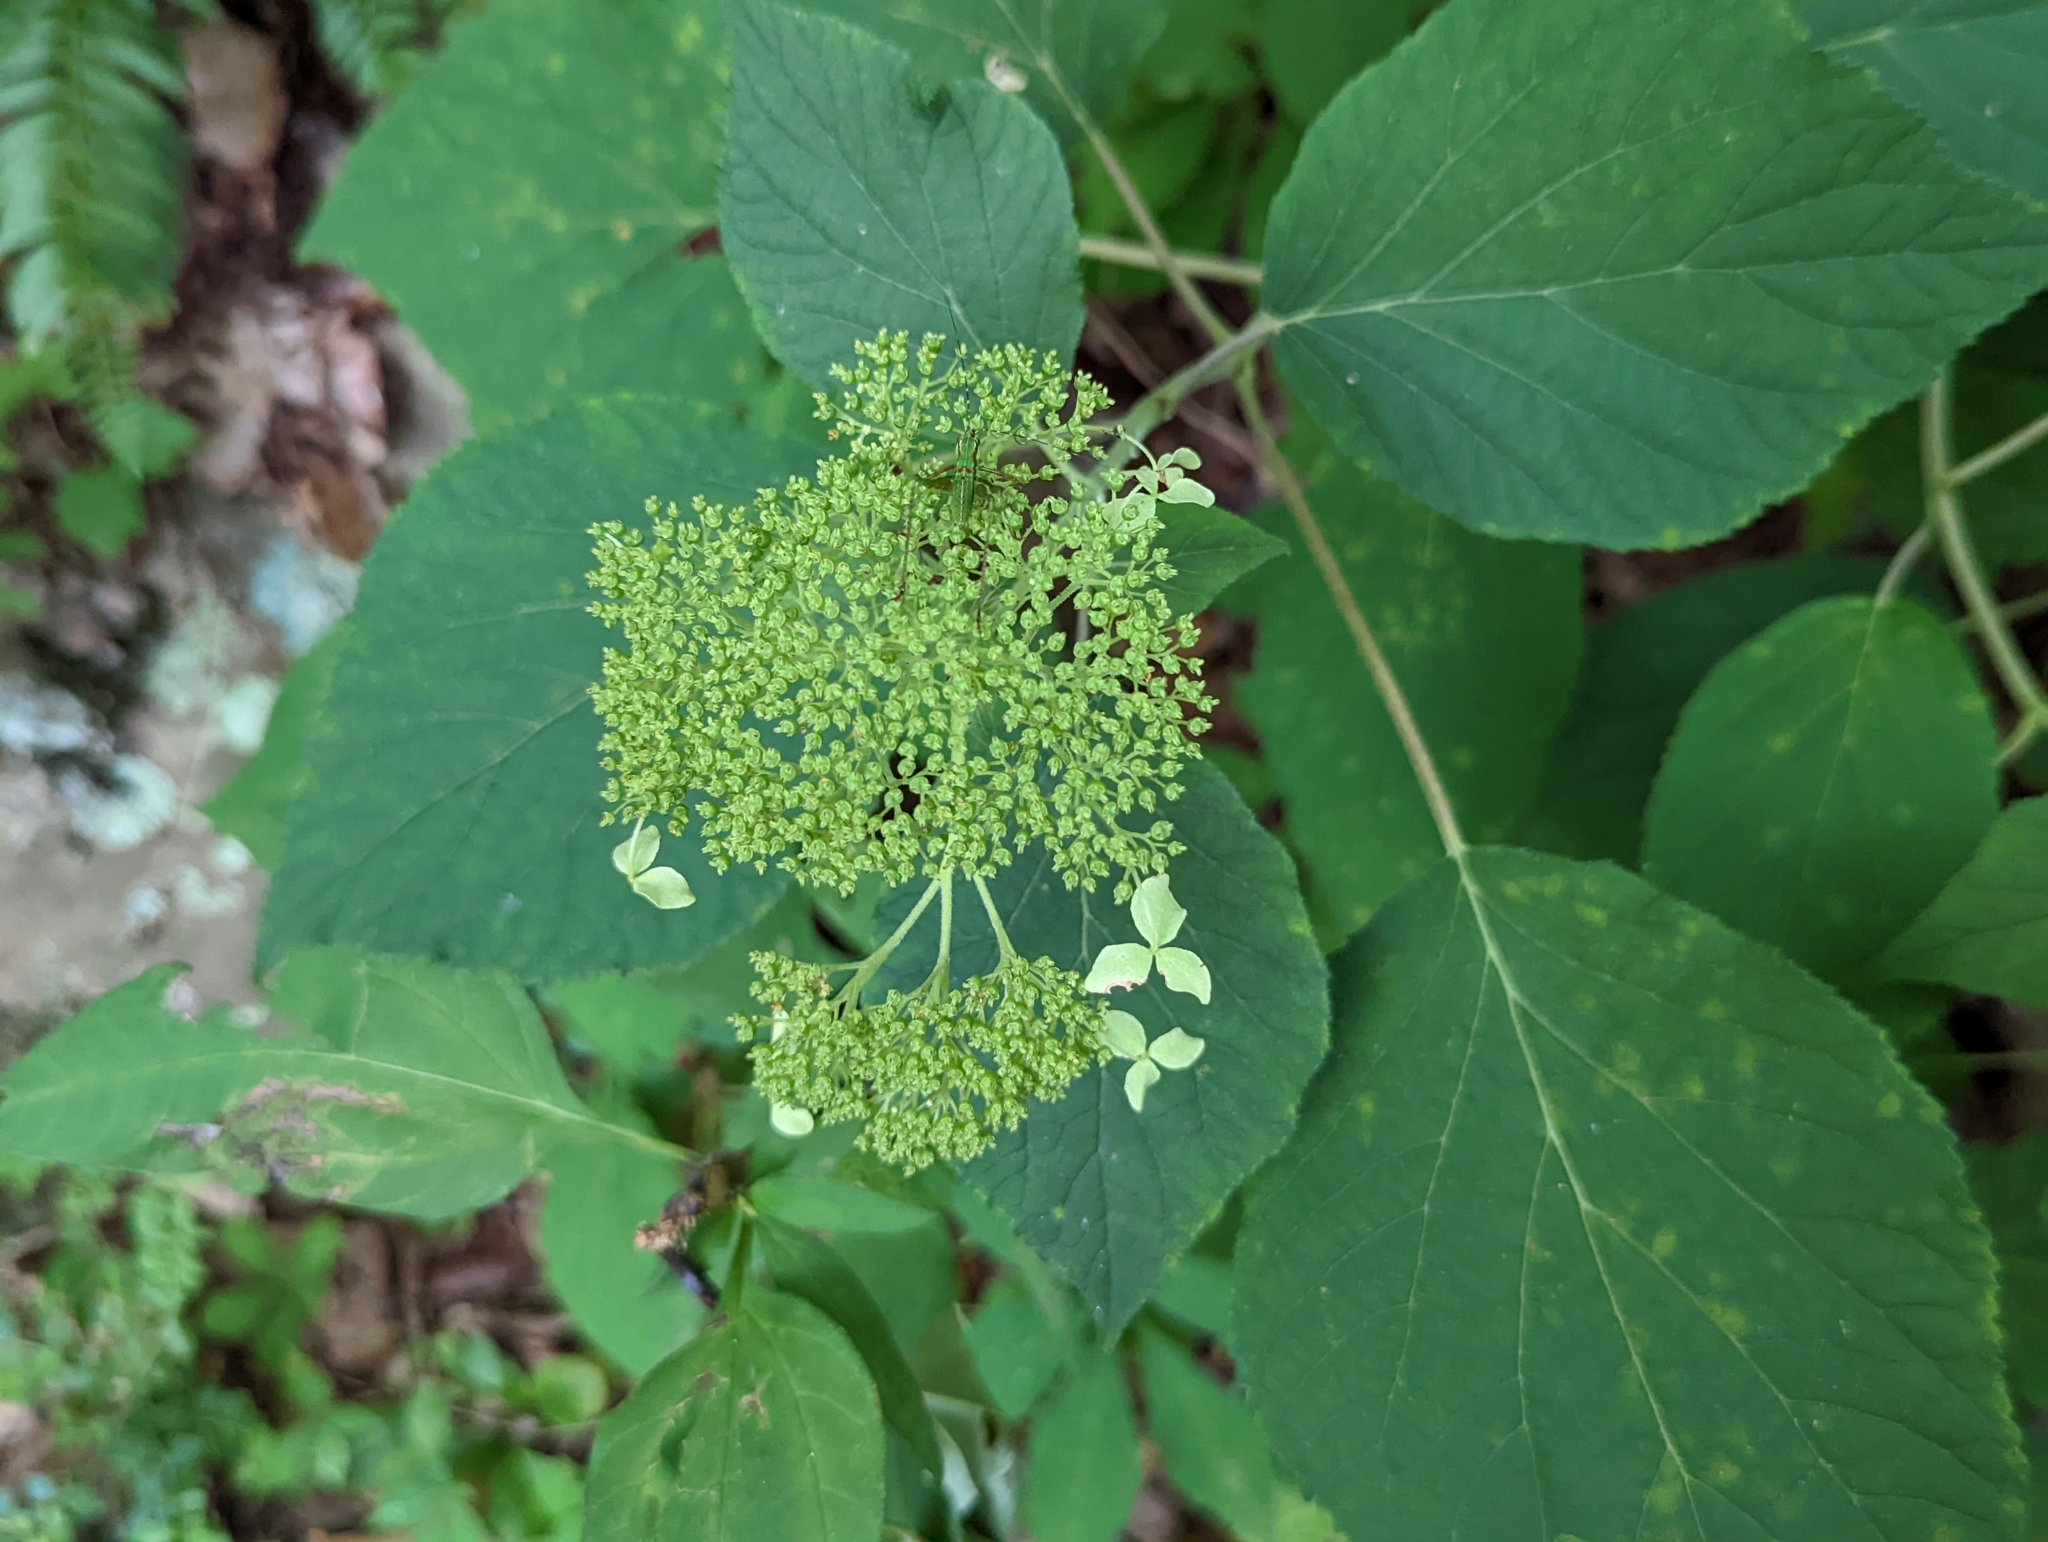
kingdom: Plantae
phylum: Tracheophyta
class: Magnoliopsida
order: Cornales
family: Hydrangeaceae
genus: Hydrangea
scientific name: Hydrangea arborescens
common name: Sevenbark
